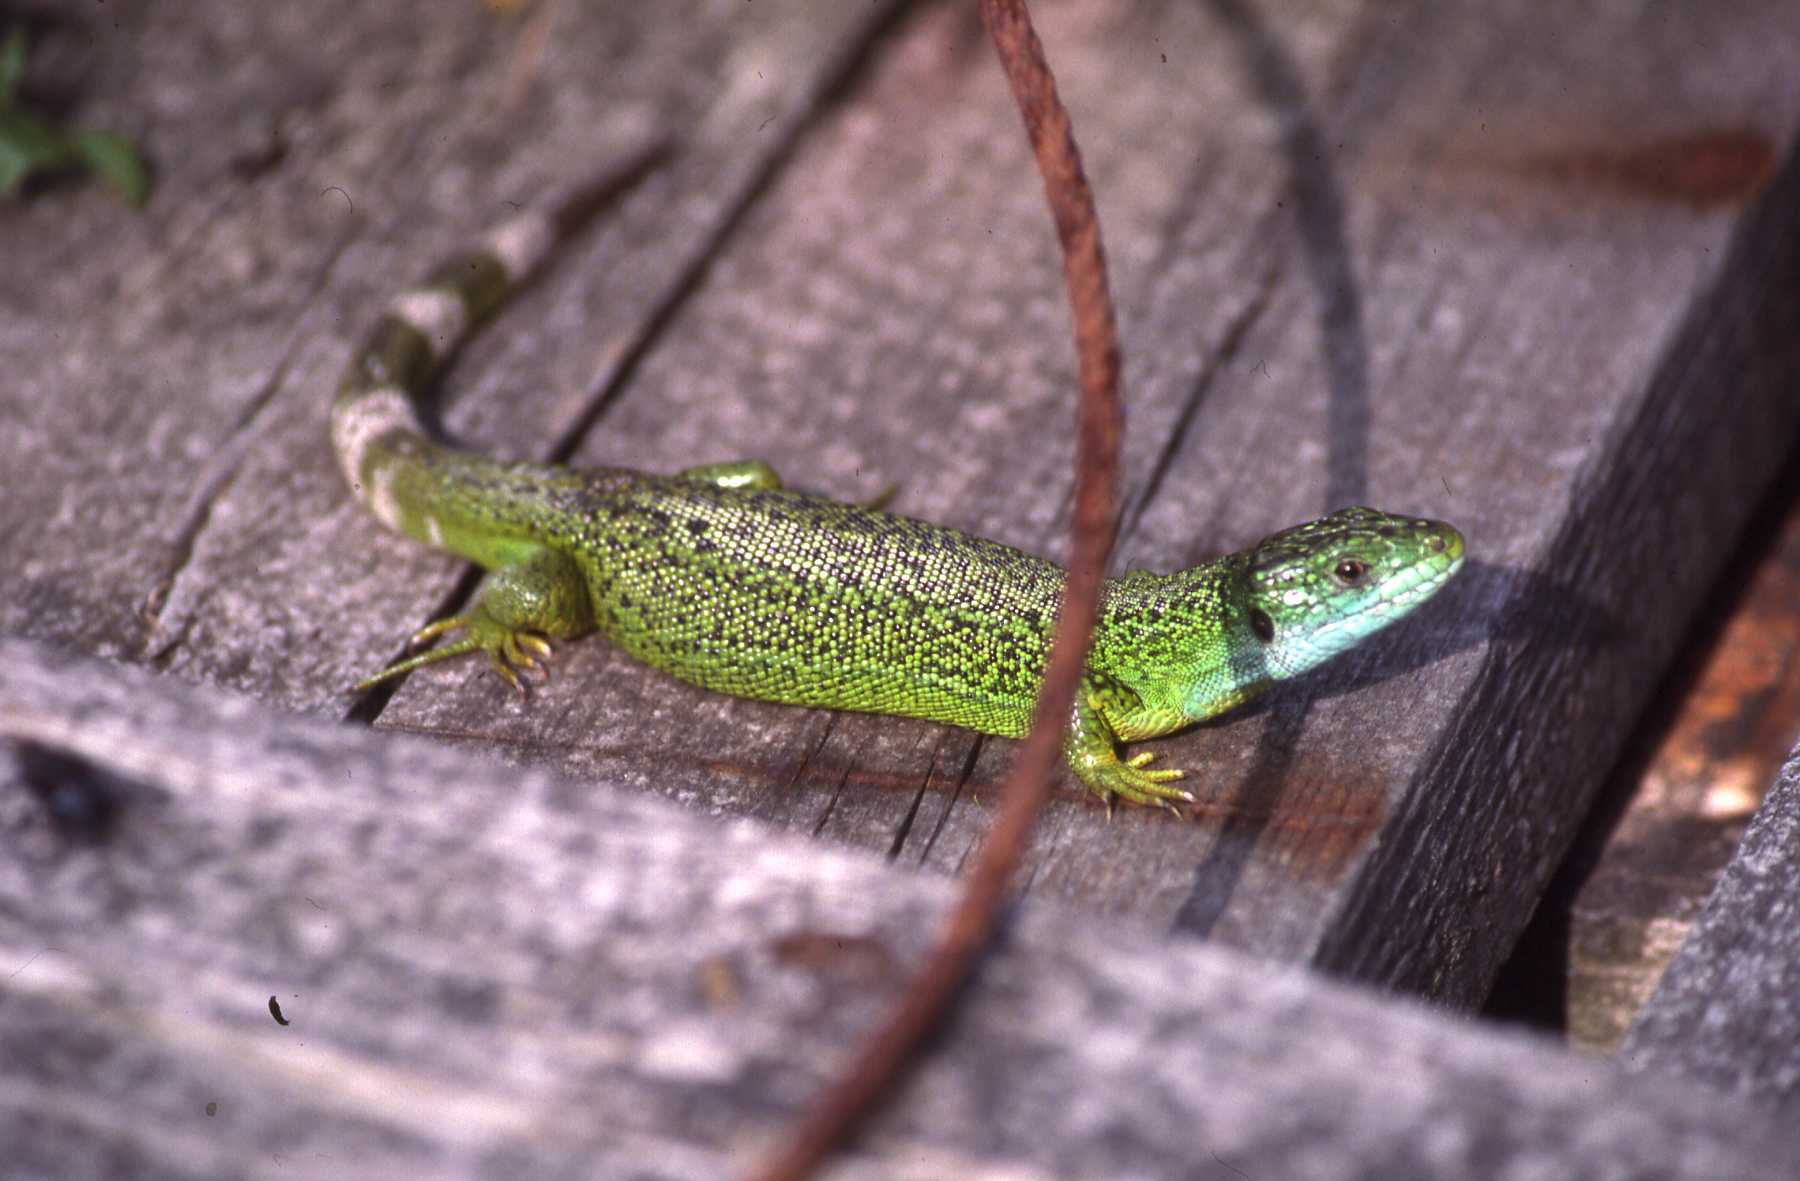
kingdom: Animalia
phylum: Chordata
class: Squamata
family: Lacertidae
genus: Lacerta
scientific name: Lacerta bilineata
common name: Western green lizard
